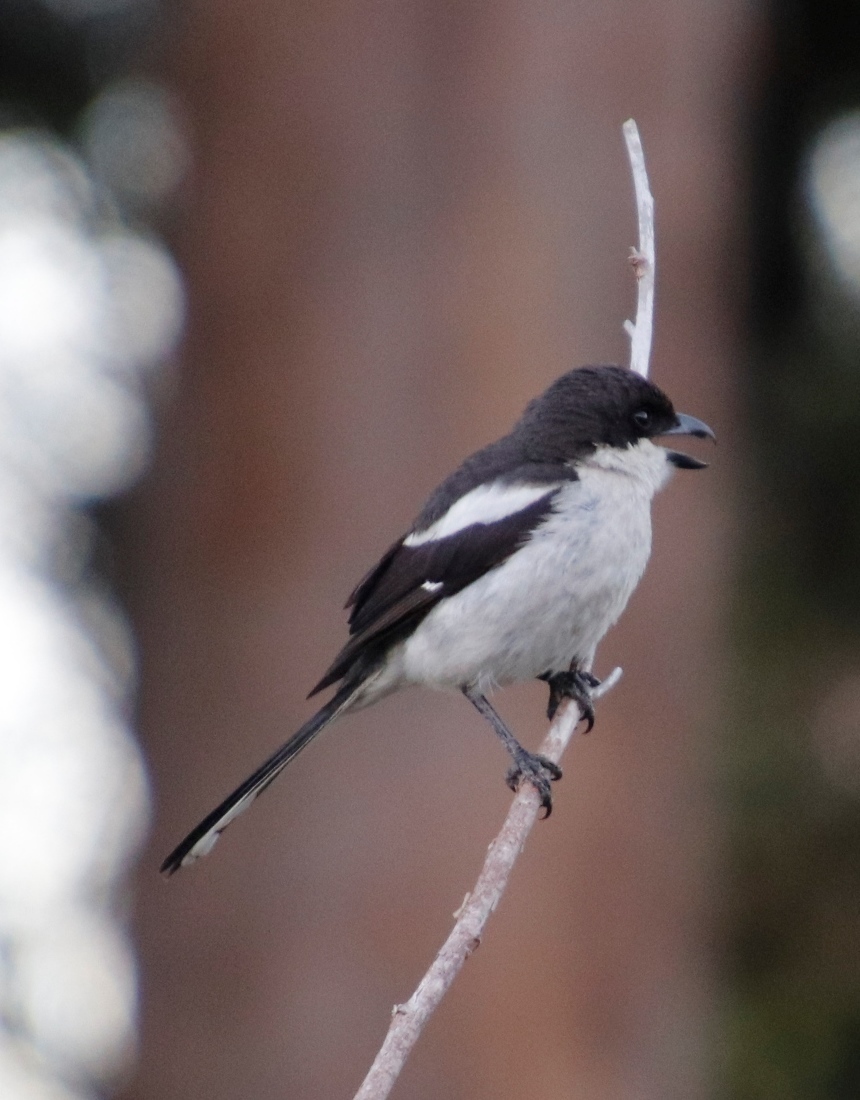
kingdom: Animalia
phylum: Chordata
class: Aves
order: Passeriformes
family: Laniidae
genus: Lanius
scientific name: Lanius collaris
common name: Southern fiscal
